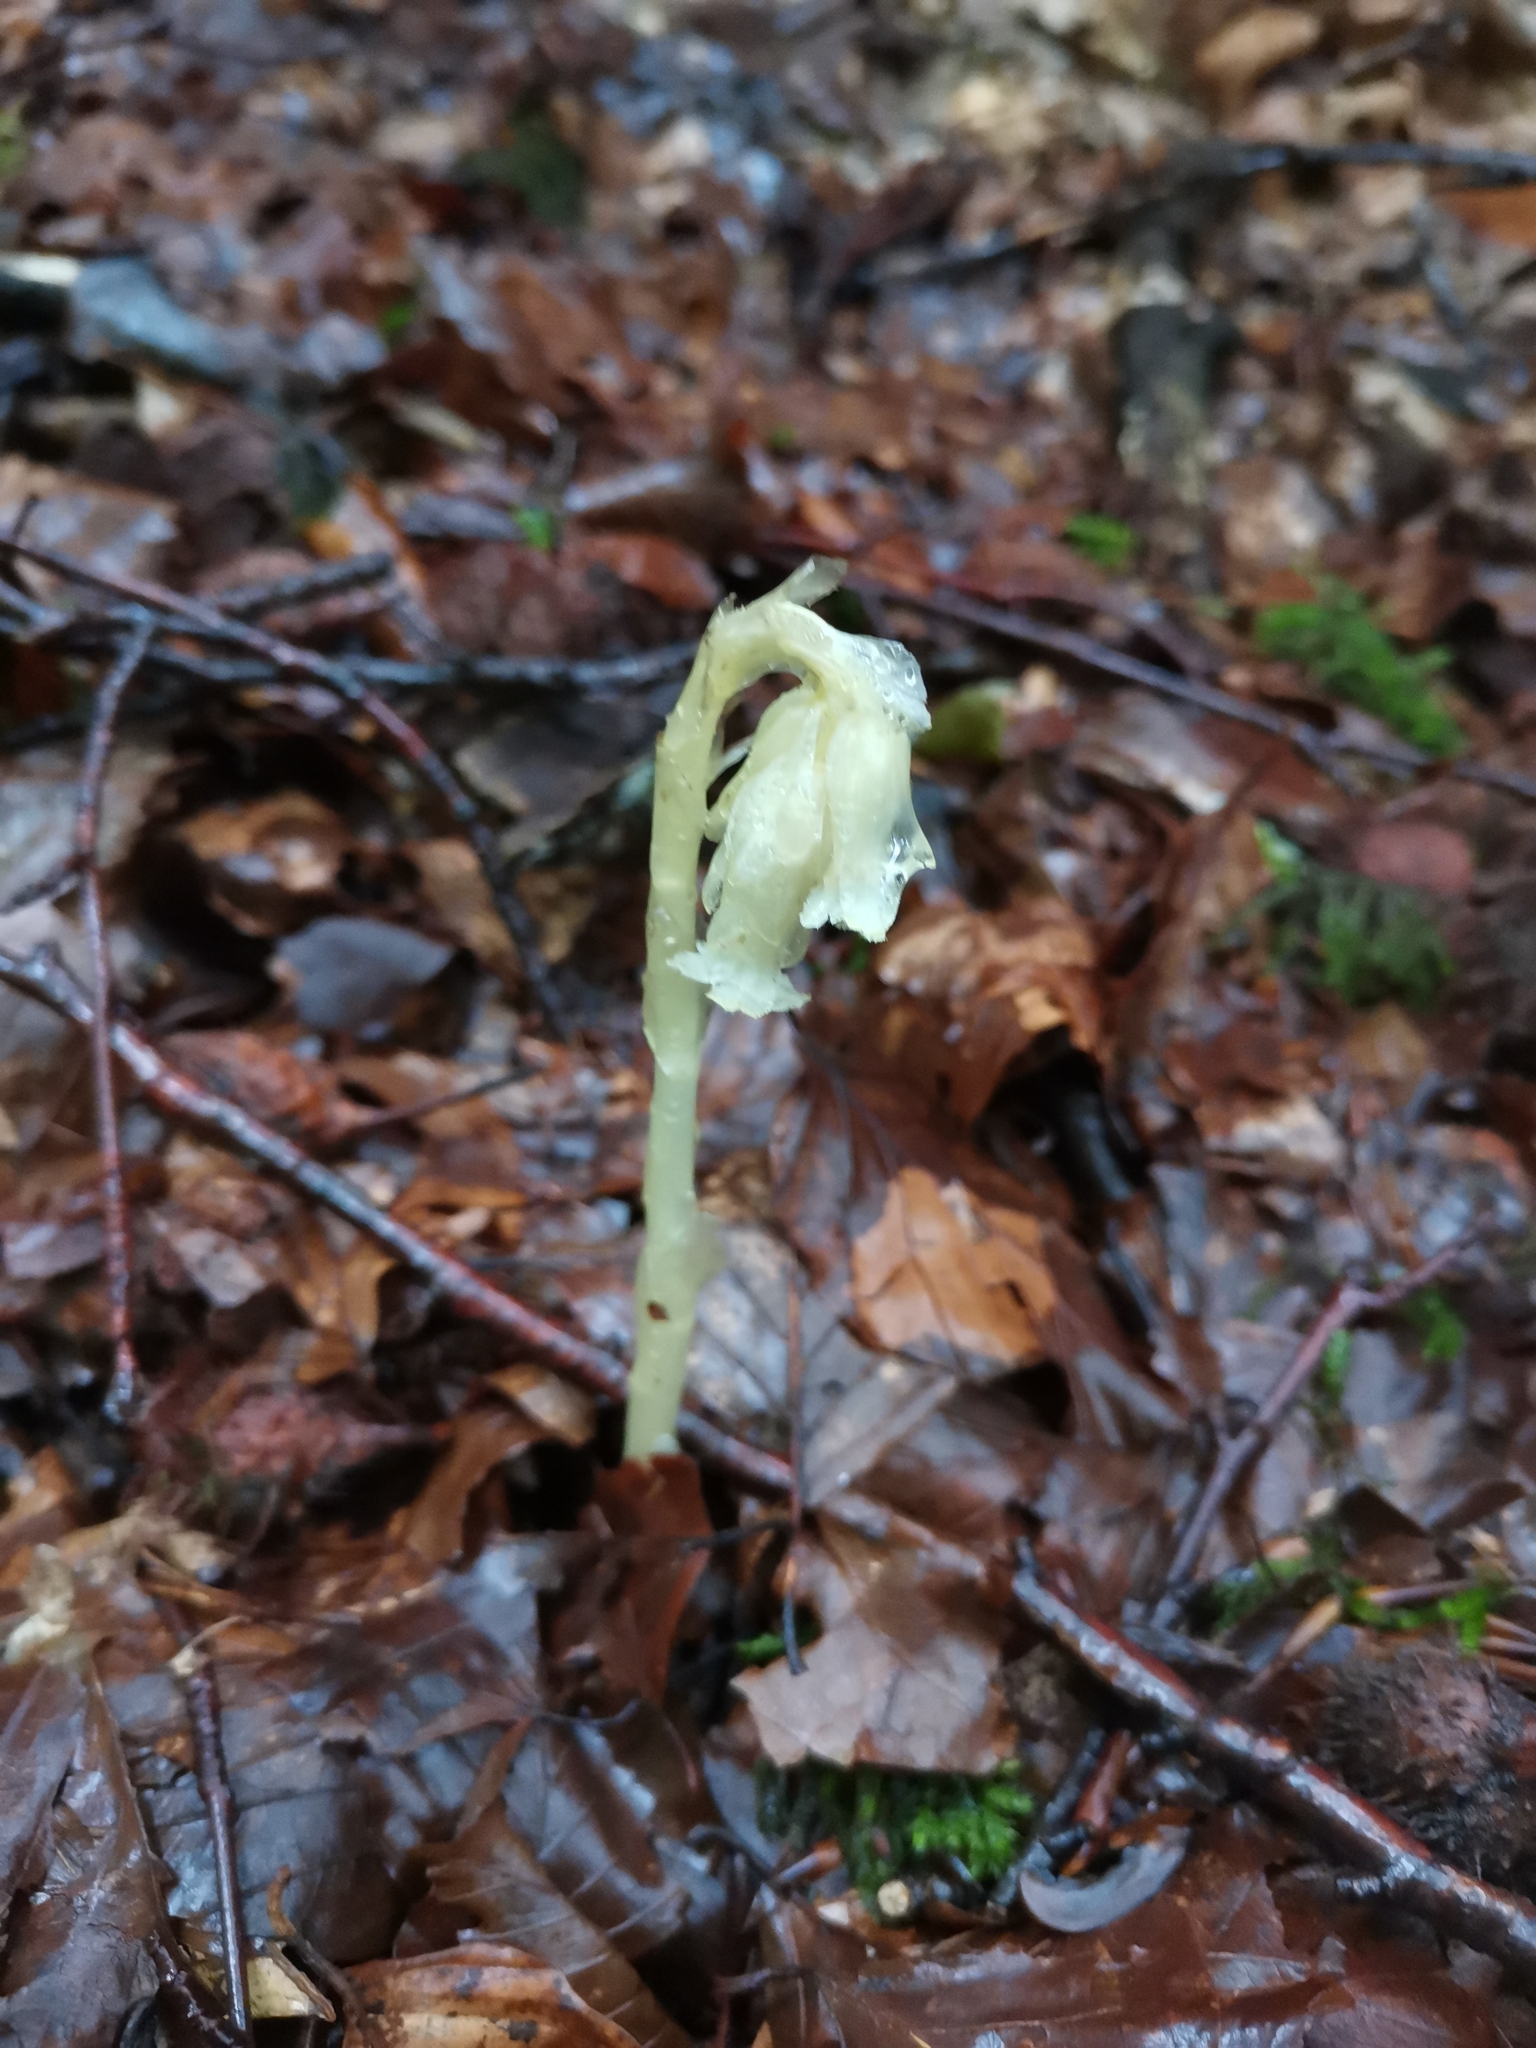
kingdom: Plantae
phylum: Tracheophyta
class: Magnoliopsida
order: Ericales
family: Ericaceae
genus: Hypopitys
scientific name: Hypopitys monotropa
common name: Yellow bird's-nest
